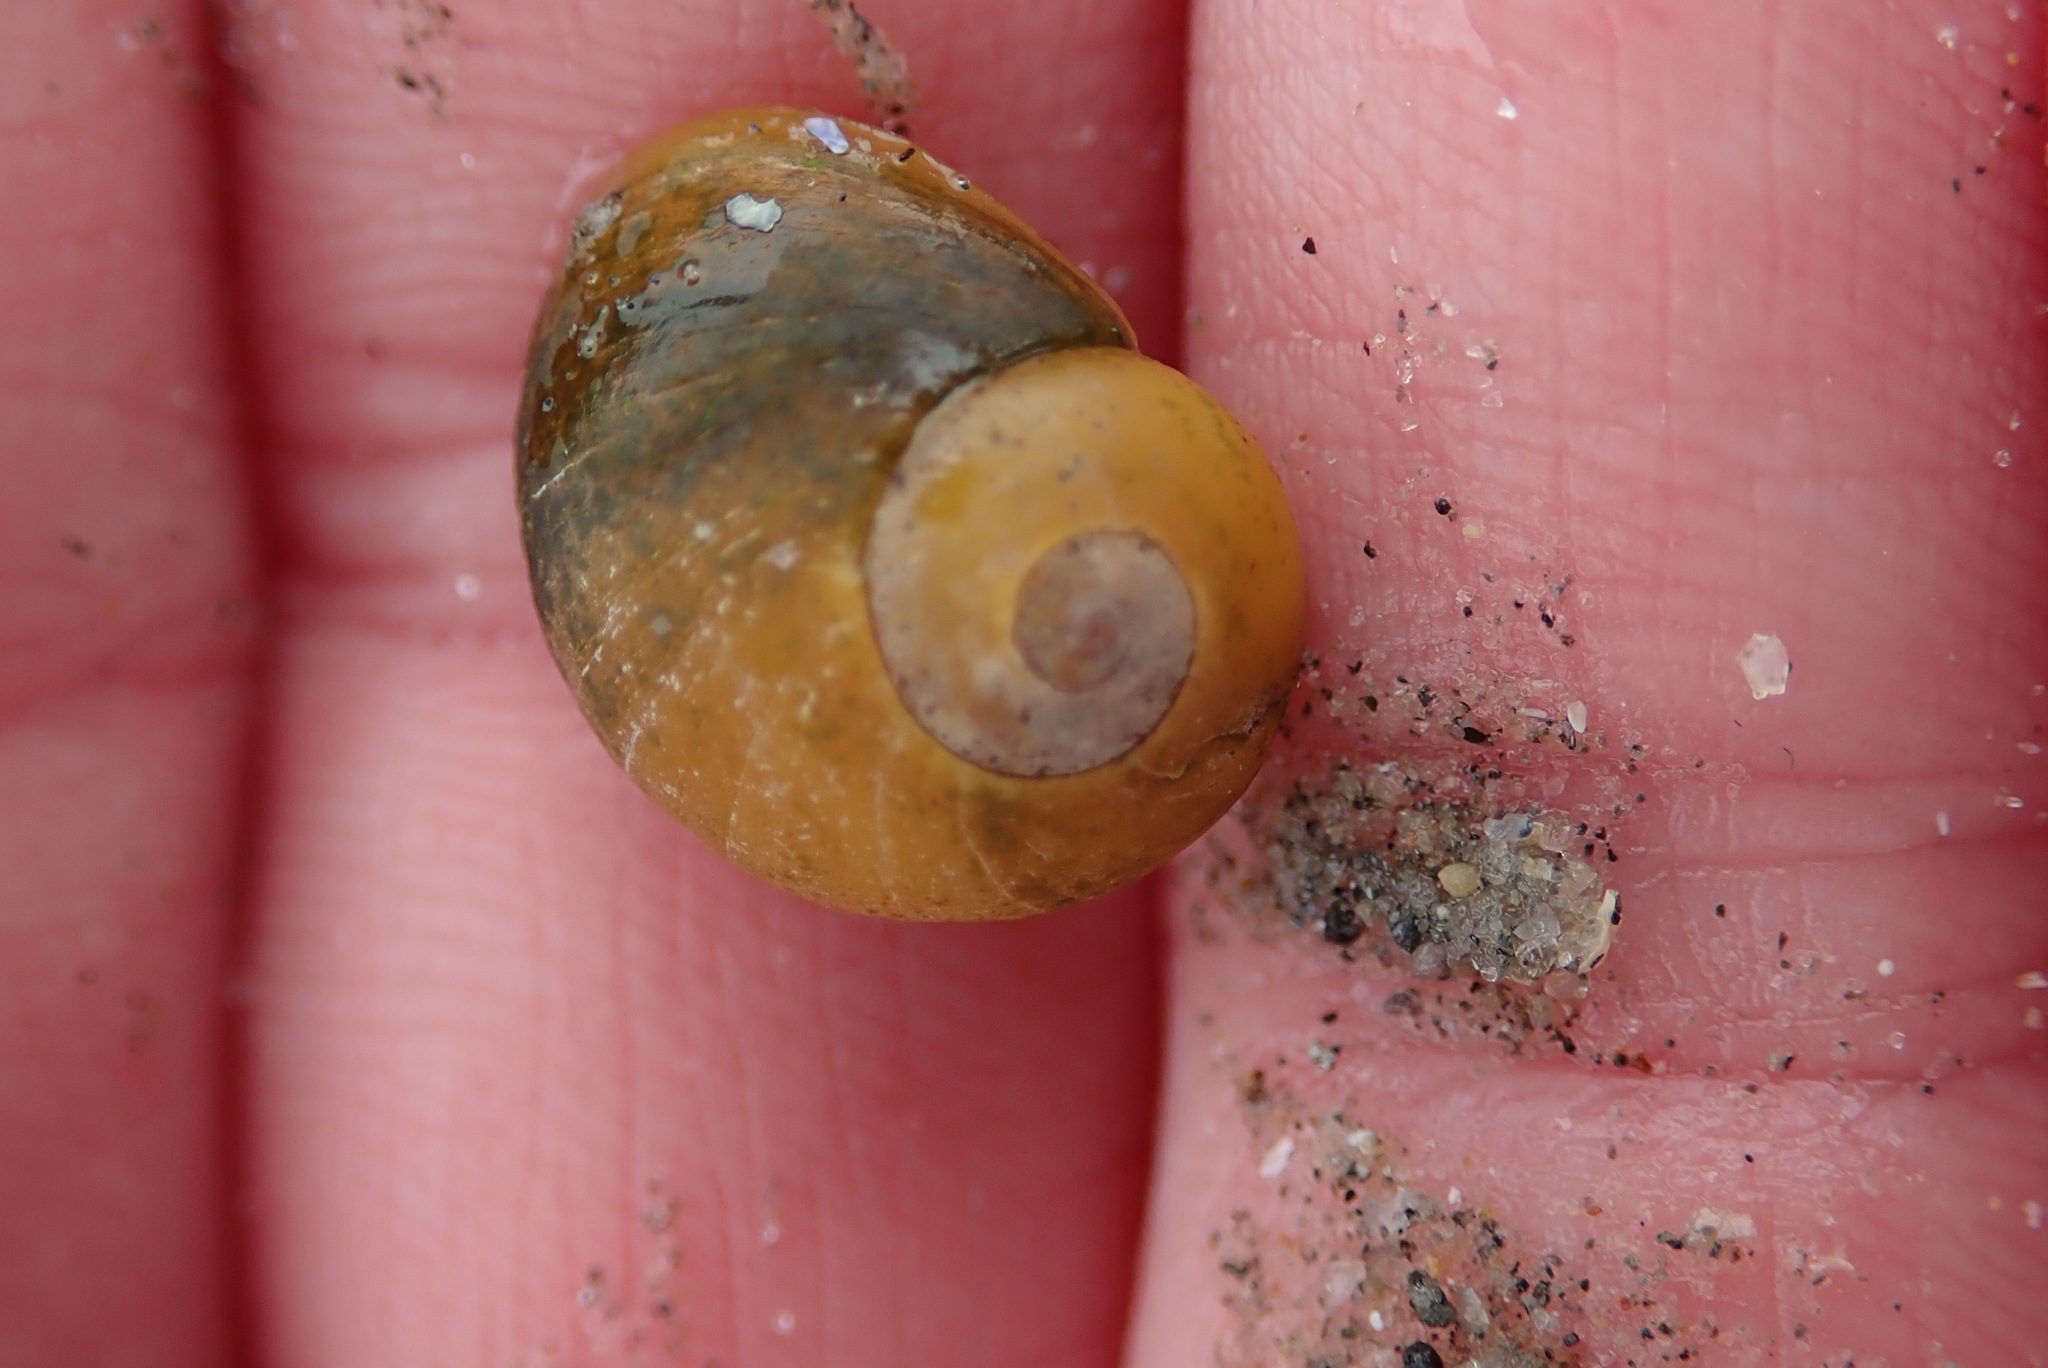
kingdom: Animalia
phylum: Mollusca
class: Gastropoda
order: Littorinimorpha
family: Littorinidae
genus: Littorina
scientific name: Littorina obtusata
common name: Flat periwinkle
